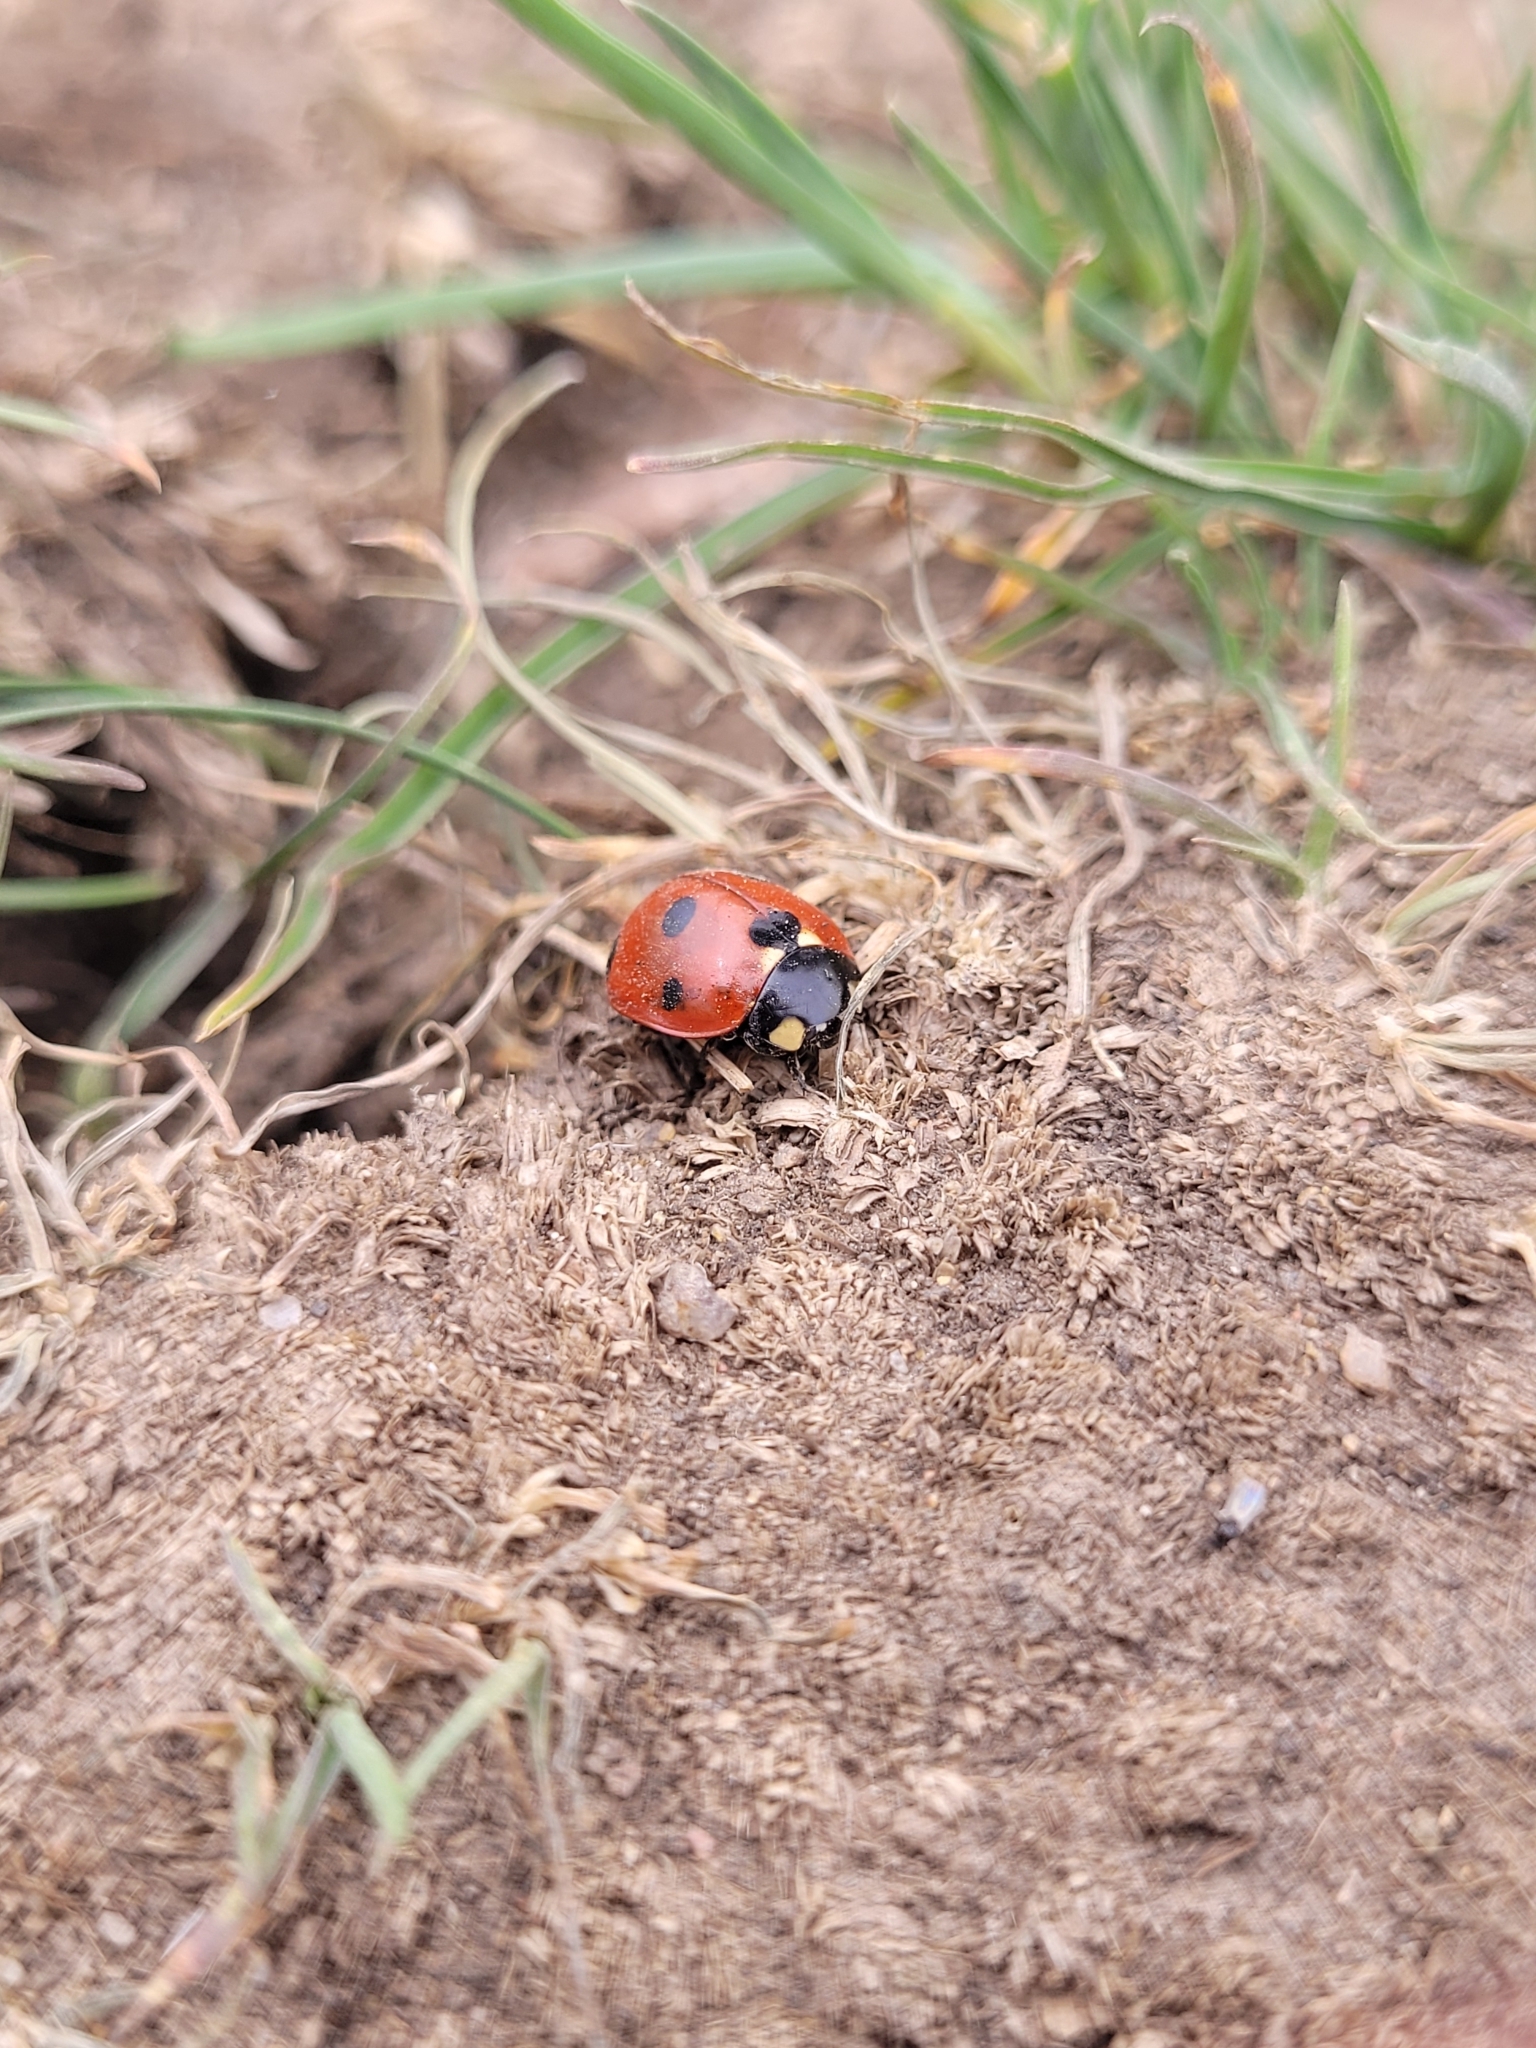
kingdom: Animalia
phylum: Arthropoda
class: Insecta
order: Coleoptera
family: Coccinellidae
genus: Coccinella
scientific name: Coccinella septempunctata
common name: Sevenspotted lady beetle
